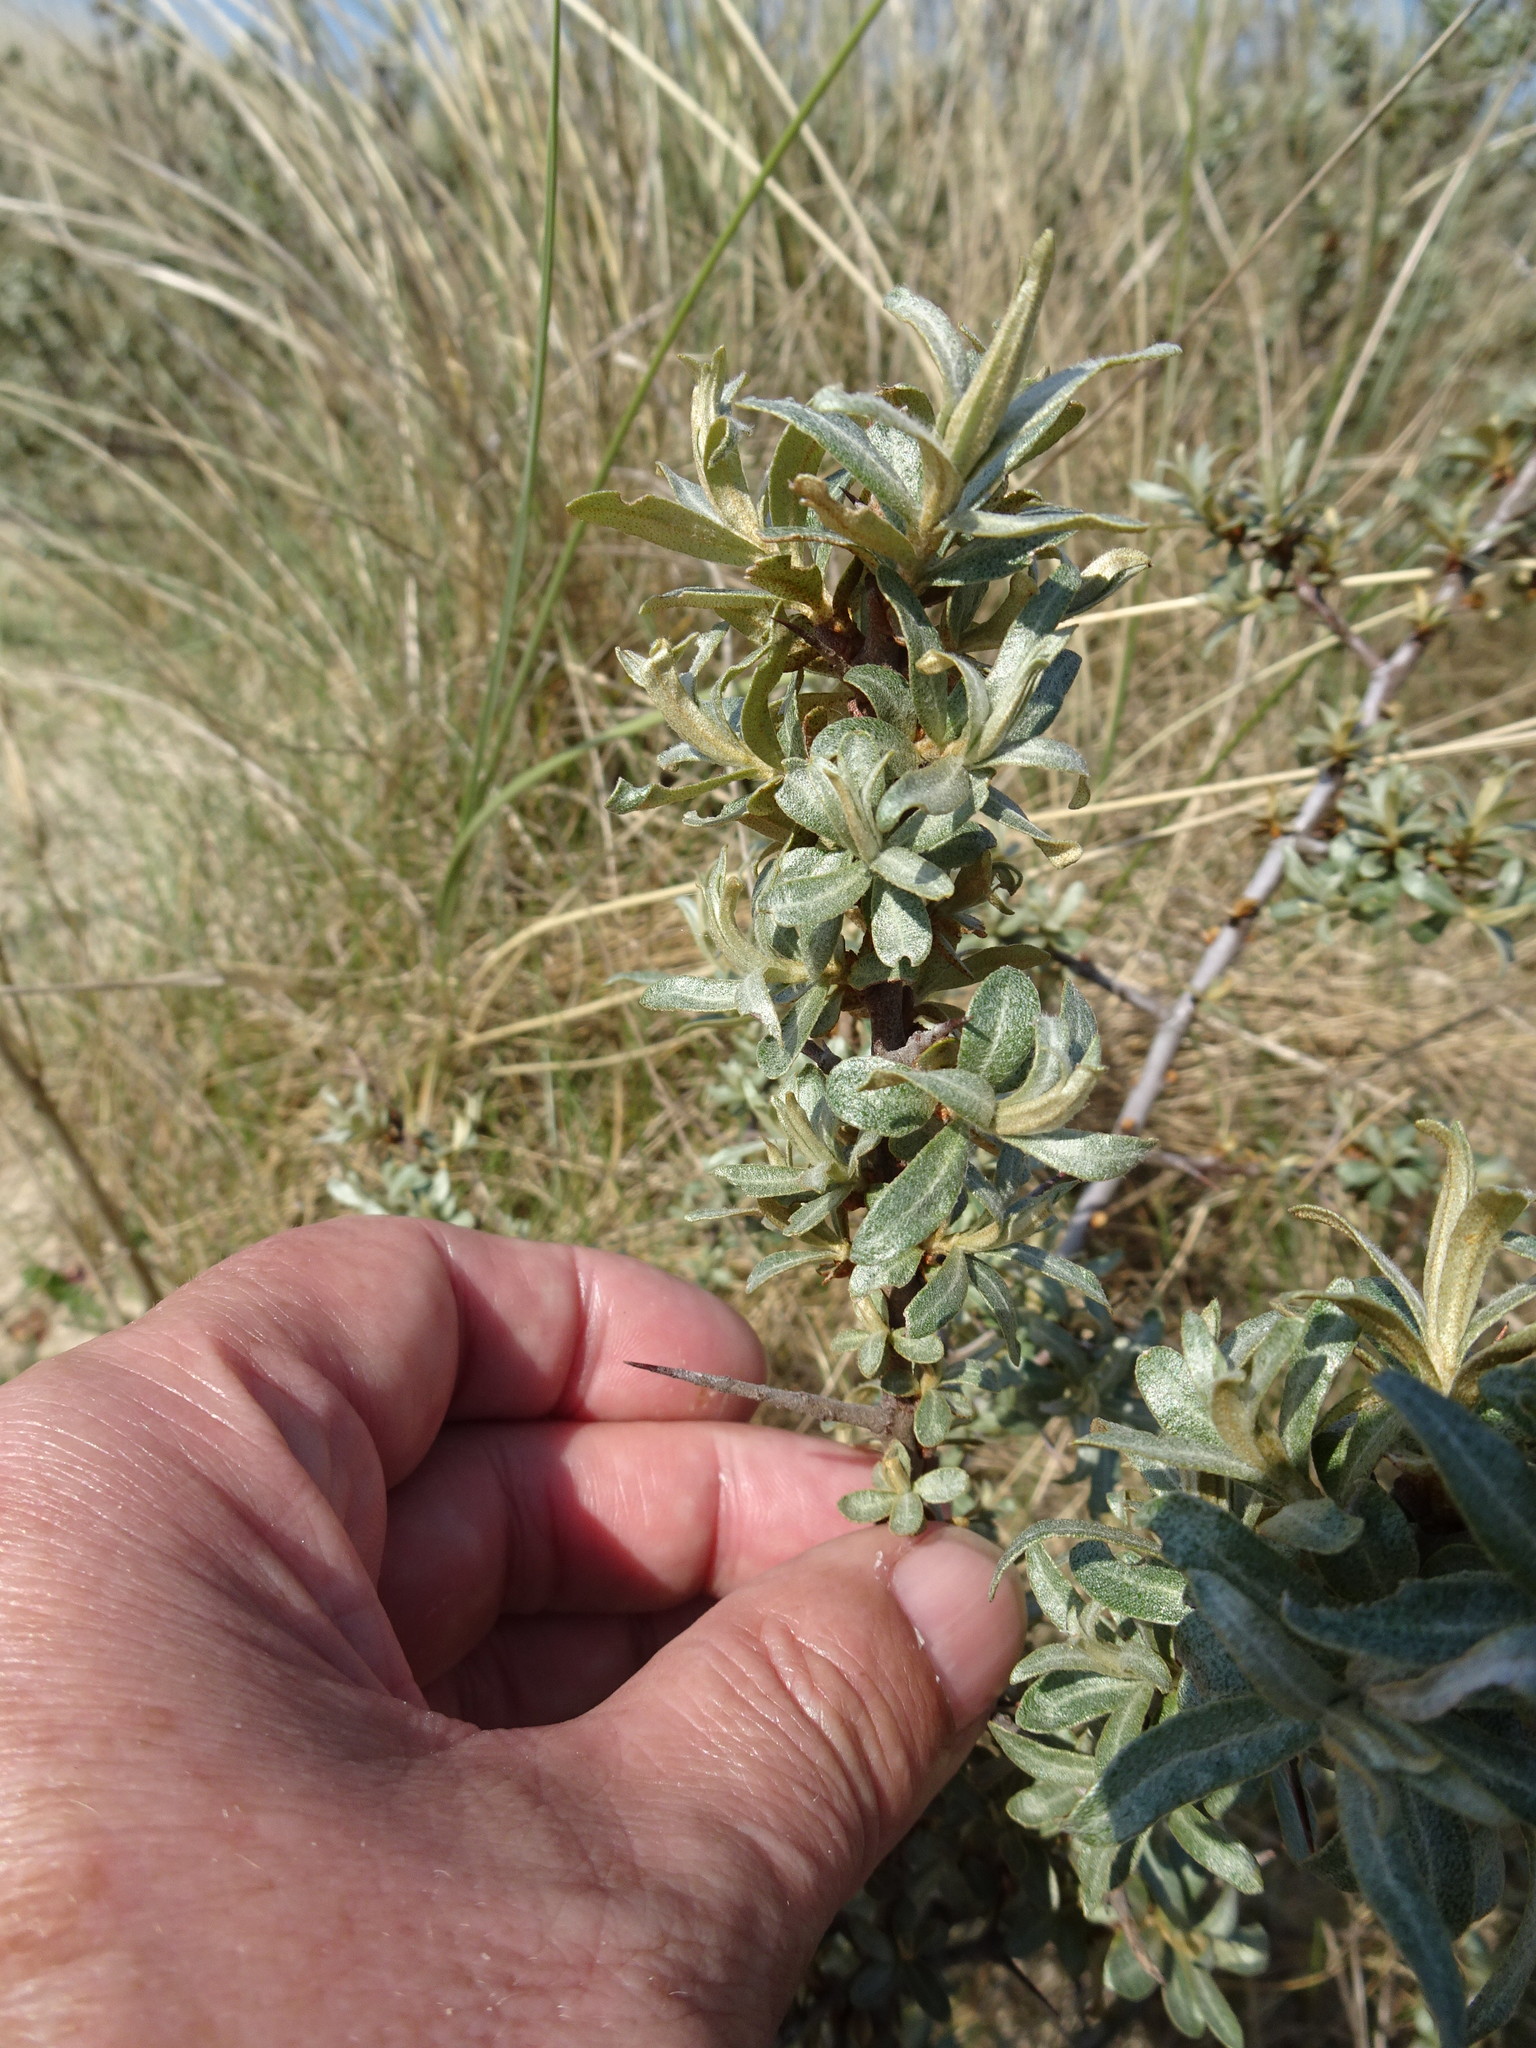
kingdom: Plantae
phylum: Tracheophyta
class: Magnoliopsida
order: Rosales
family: Elaeagnaceae
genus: Hippophae
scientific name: Hippophae rhamnoides
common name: Sea-buckthorn
